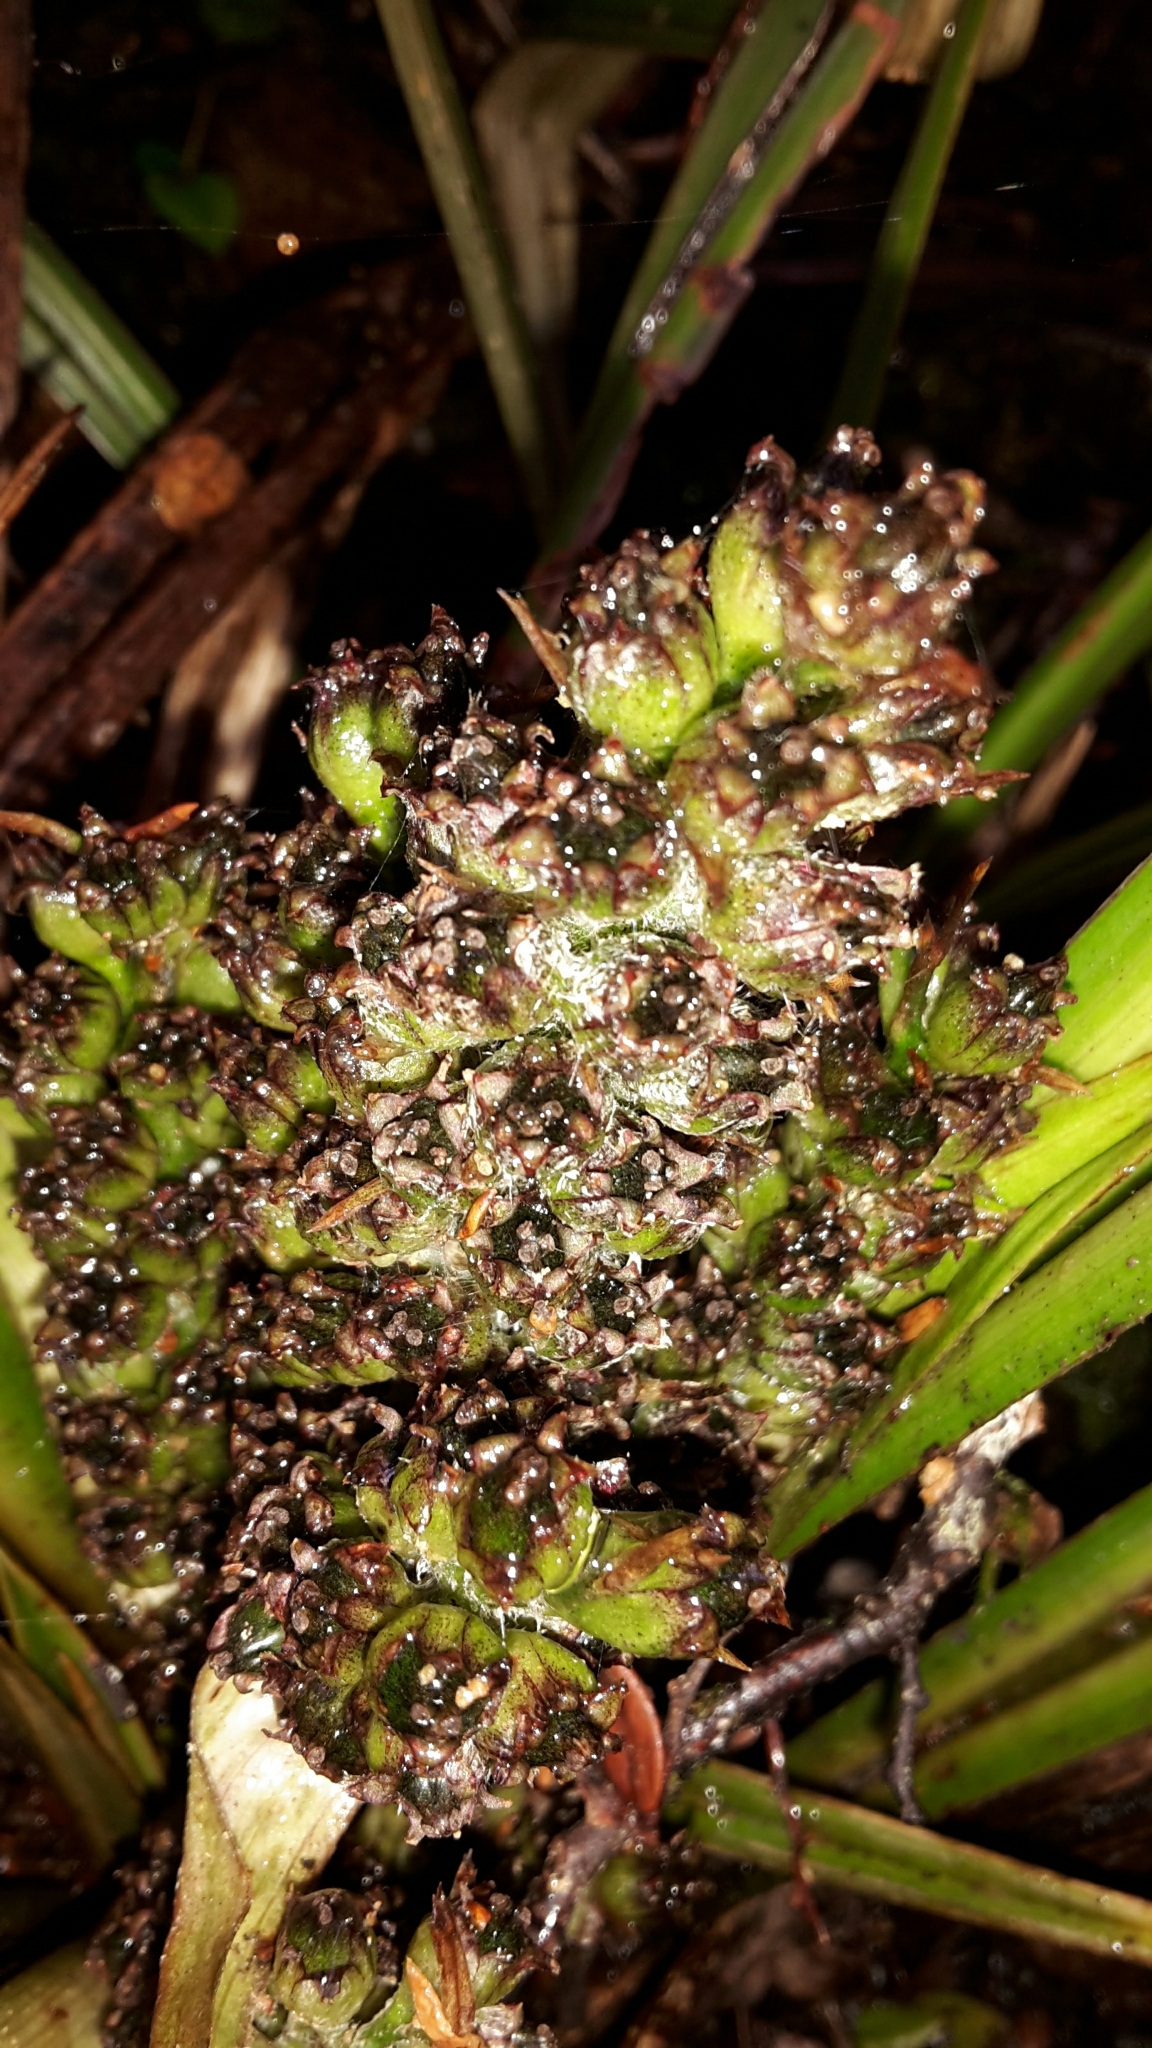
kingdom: Plantae
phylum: Tracheophyta
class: Liliopsida
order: Asparagales
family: Asteliaceae
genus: Astelia
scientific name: Astelia nervosa
